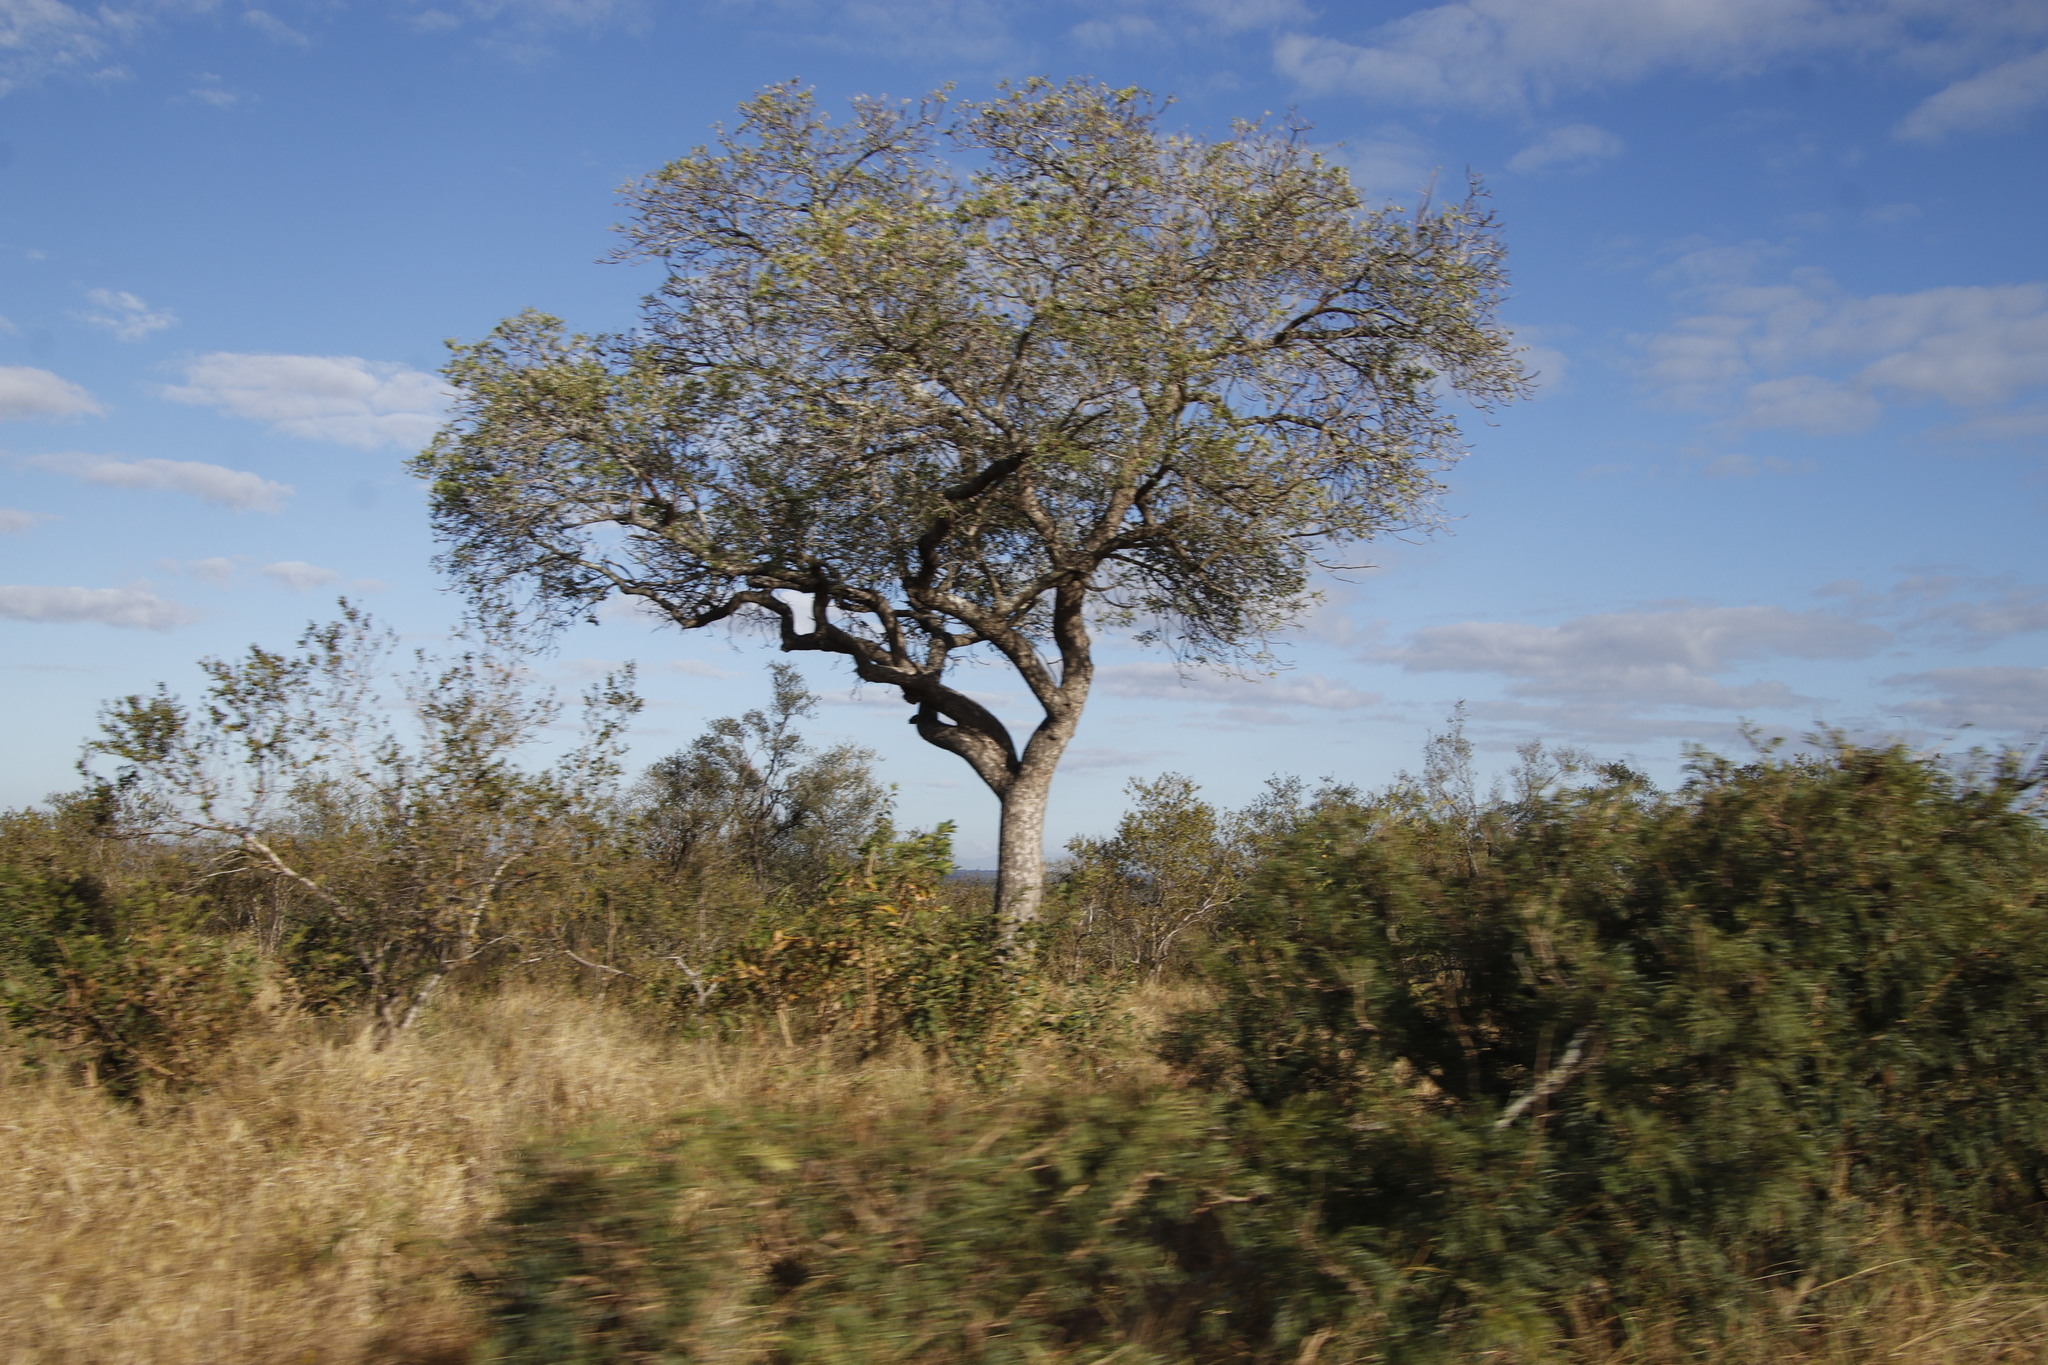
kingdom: Plantae
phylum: Tracheophyta
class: Magnoliopsida
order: Sapindales
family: Anacardiaceae
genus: Sclerocarya
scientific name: Sclerocarya birrea
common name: Marula
